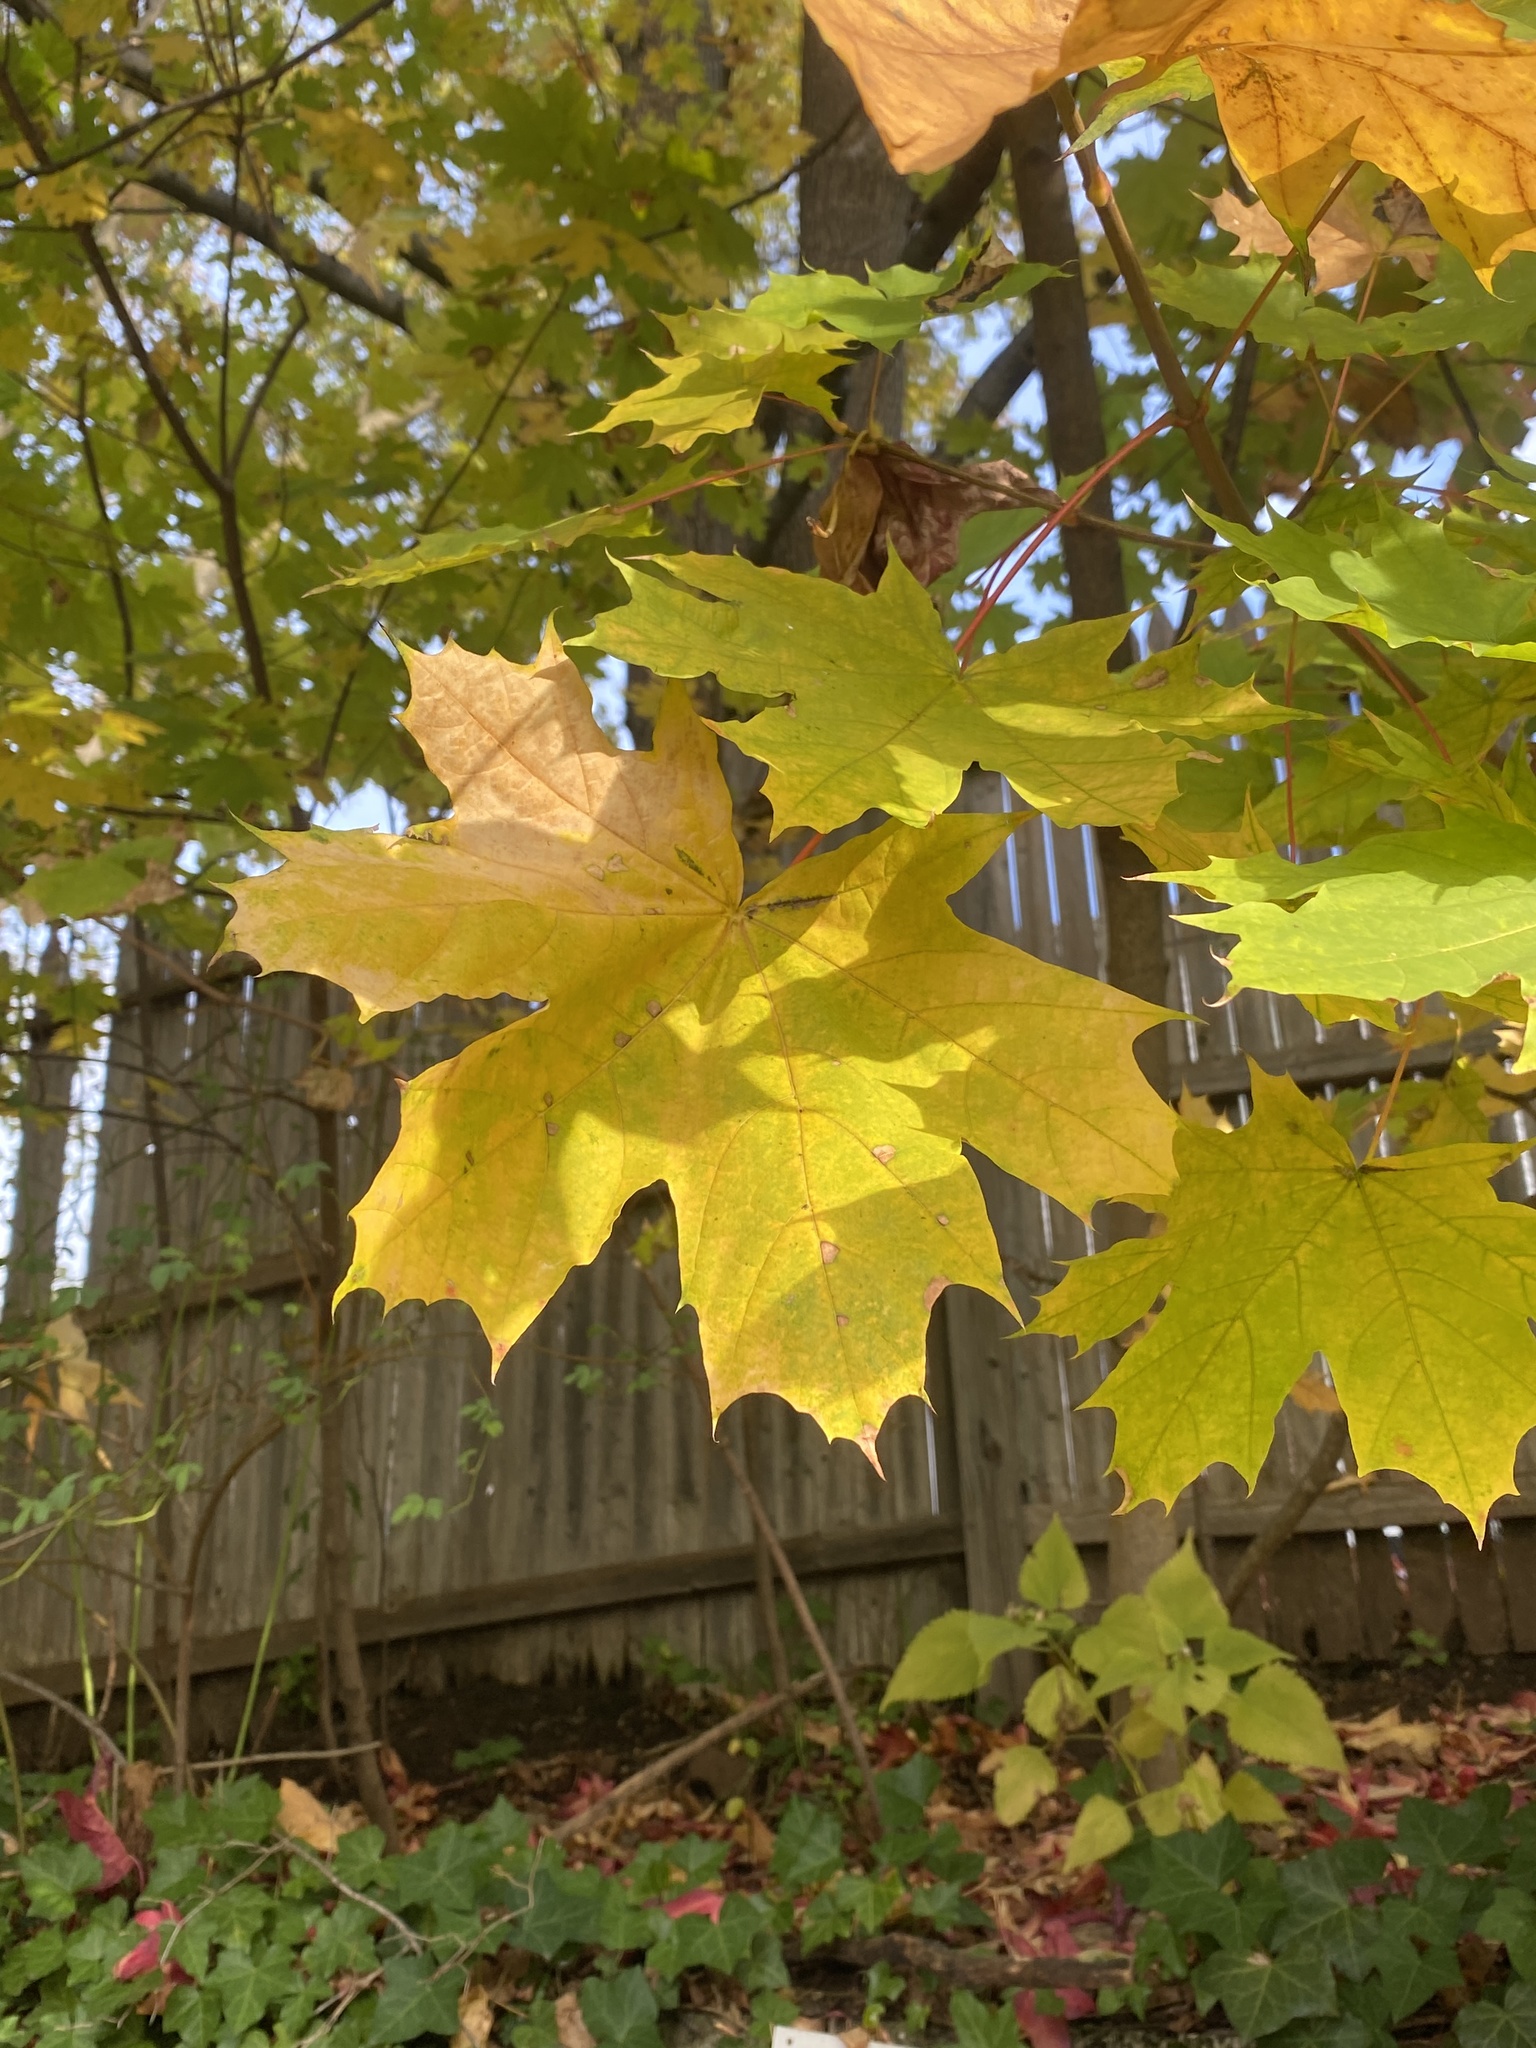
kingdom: Plantae
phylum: Tracheophyta
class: Magnoliopsida
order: Sapindales
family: Sapindaceae
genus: Acer
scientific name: Acer platanoides
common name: Norway maple
